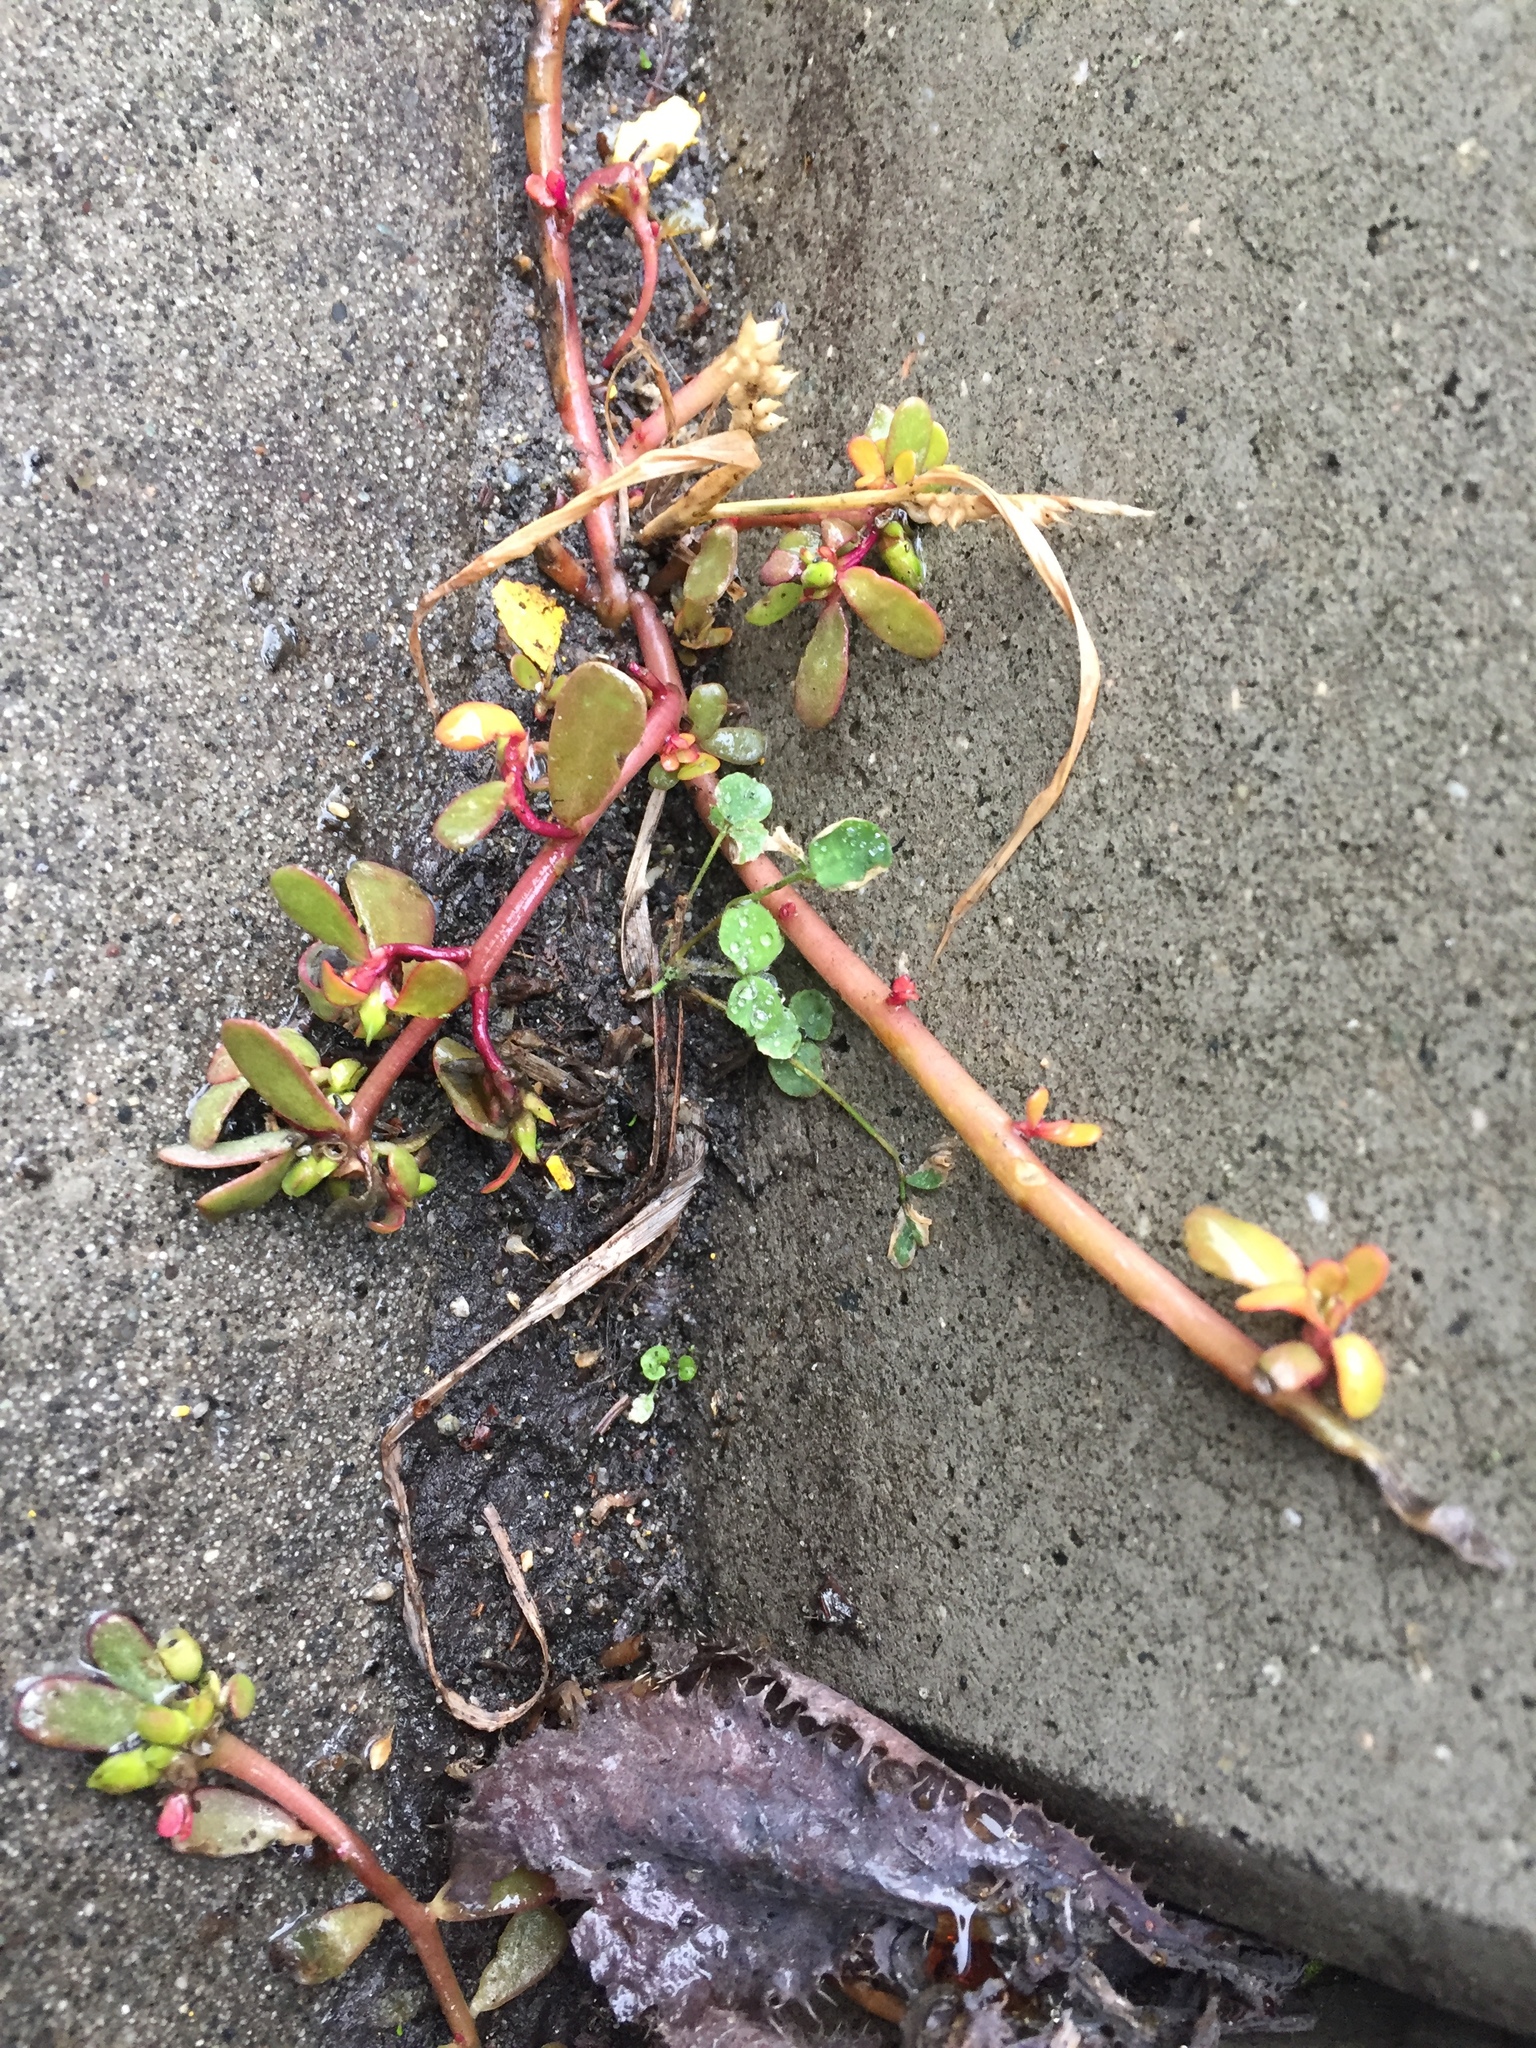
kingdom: Plantae
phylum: Tracheophyta
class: Magnoliopsida
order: Caryophyllales
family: Portulacaceae
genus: Portulaca
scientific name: Portulaca oleracea
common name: Common purslane
